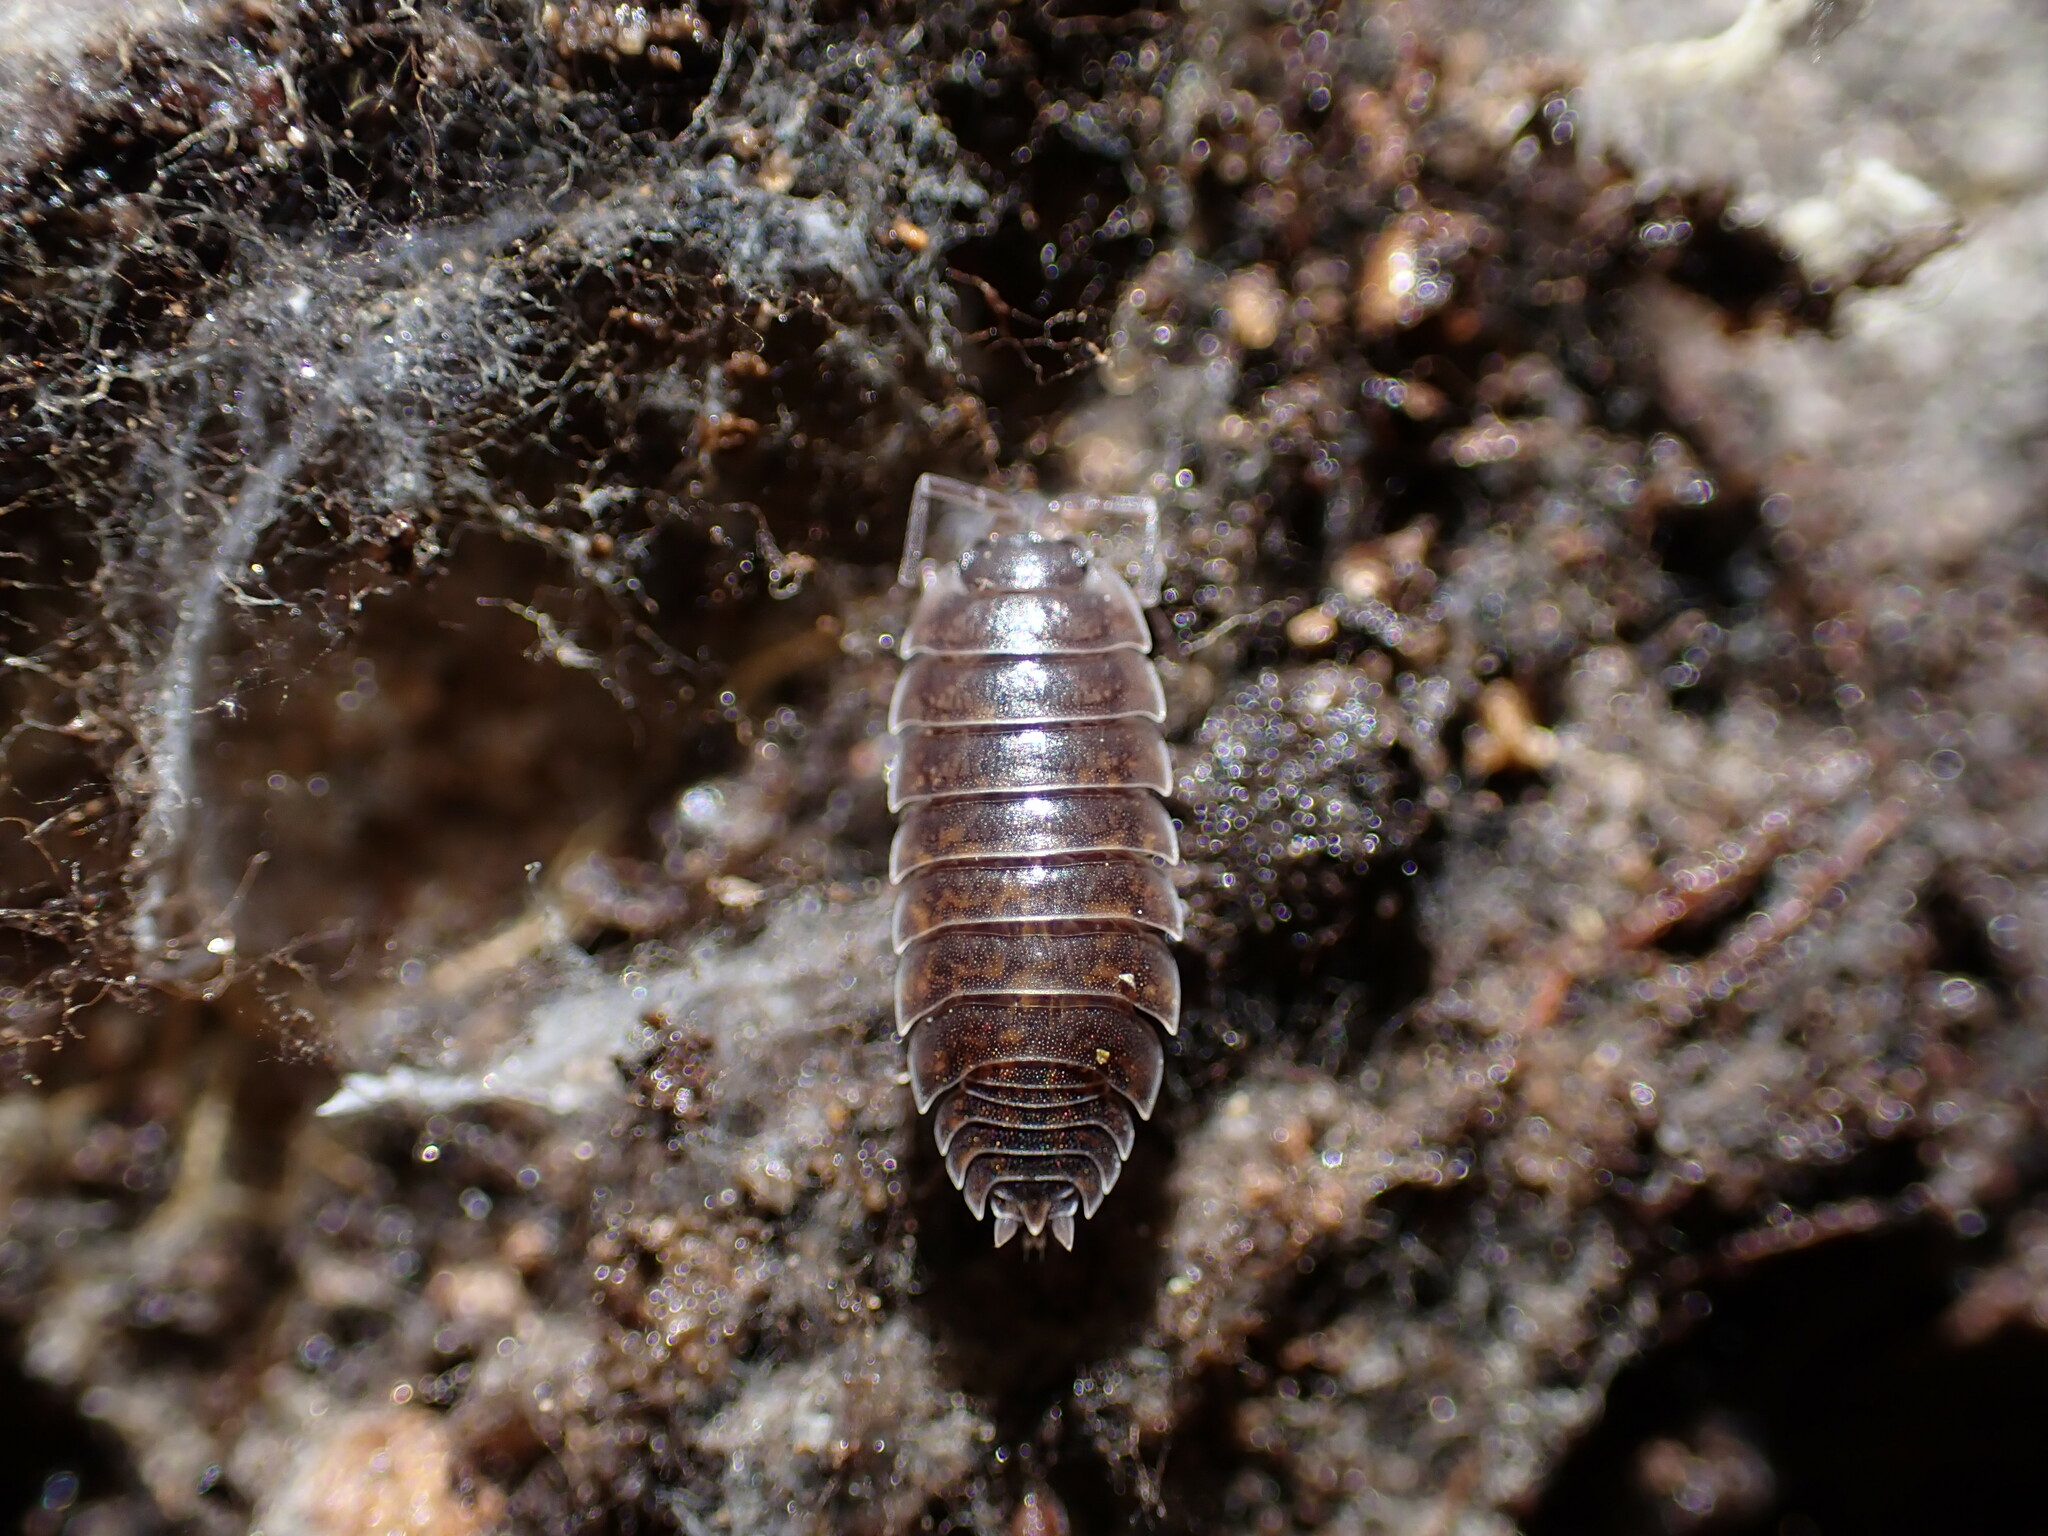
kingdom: Animalia
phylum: Arthropoda
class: Malacostraca
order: Isopoda
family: Porcellionidae
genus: Porcellio
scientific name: Porcellio orarum
